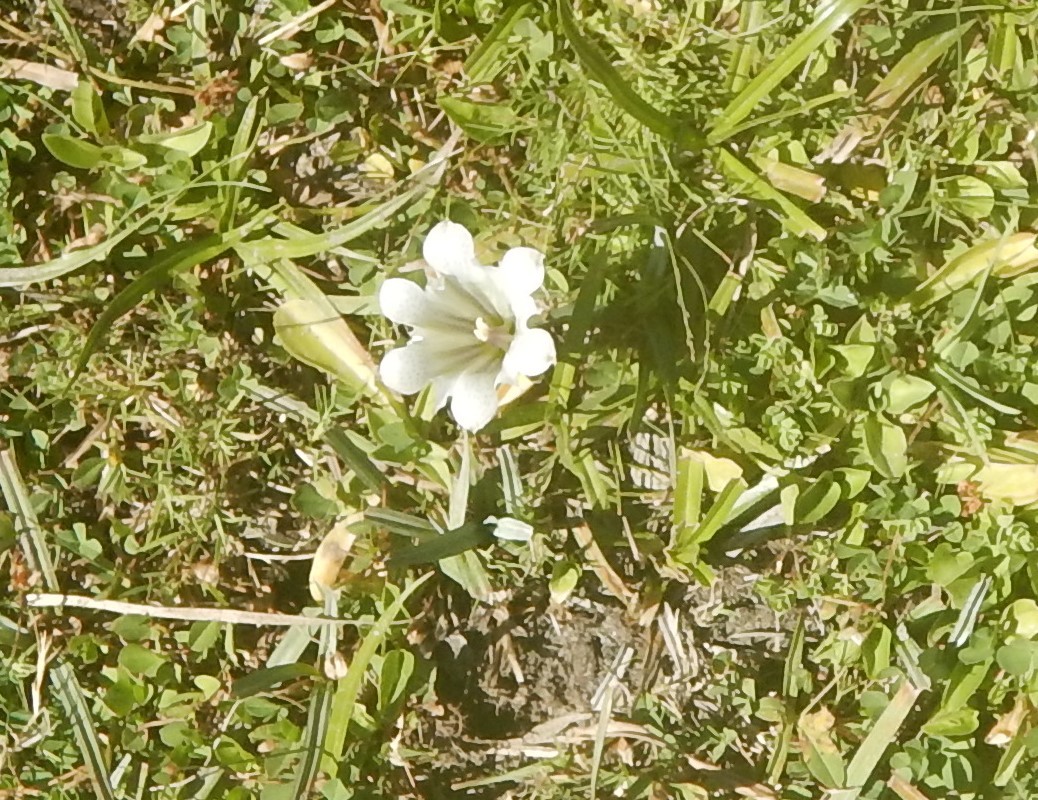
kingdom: Plantae
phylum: Tracheophyta
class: Magnoliopsida
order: Gentianales
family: Gentianaceae
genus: Gentiana
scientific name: Gentiana newberryi
